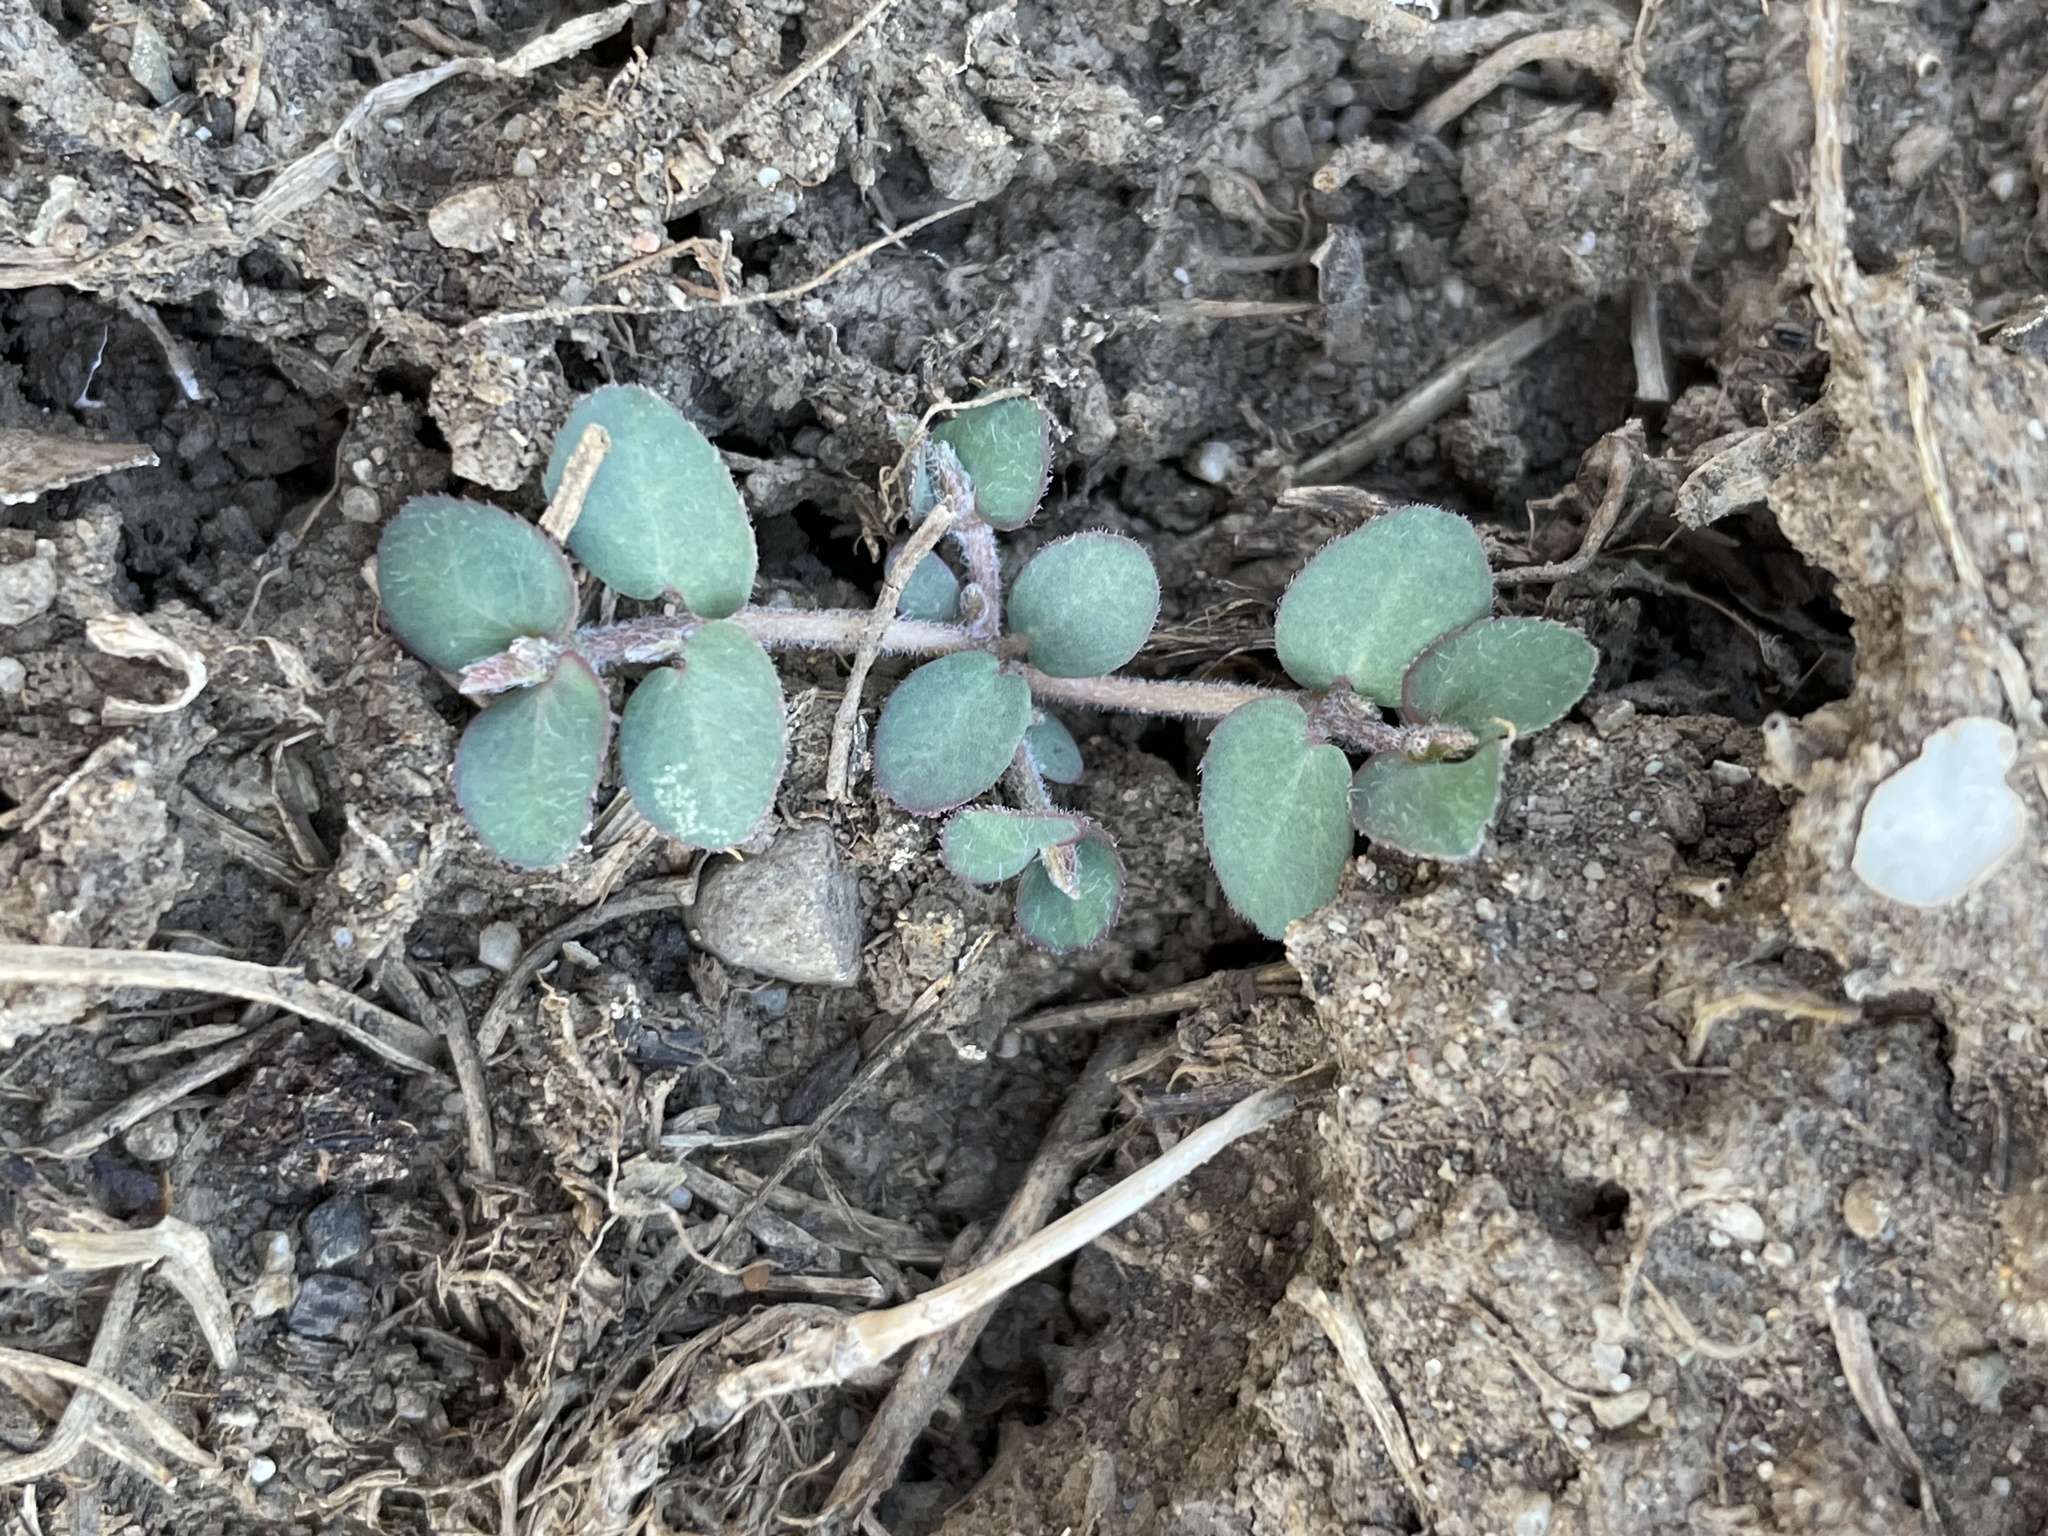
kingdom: Plantae
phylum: Tracheophyta
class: Magnoliopsida
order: Malpighiales
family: Euphorbiaceae
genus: Euphorbia
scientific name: Euphorbia prostrata
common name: Prostrate sandmat
